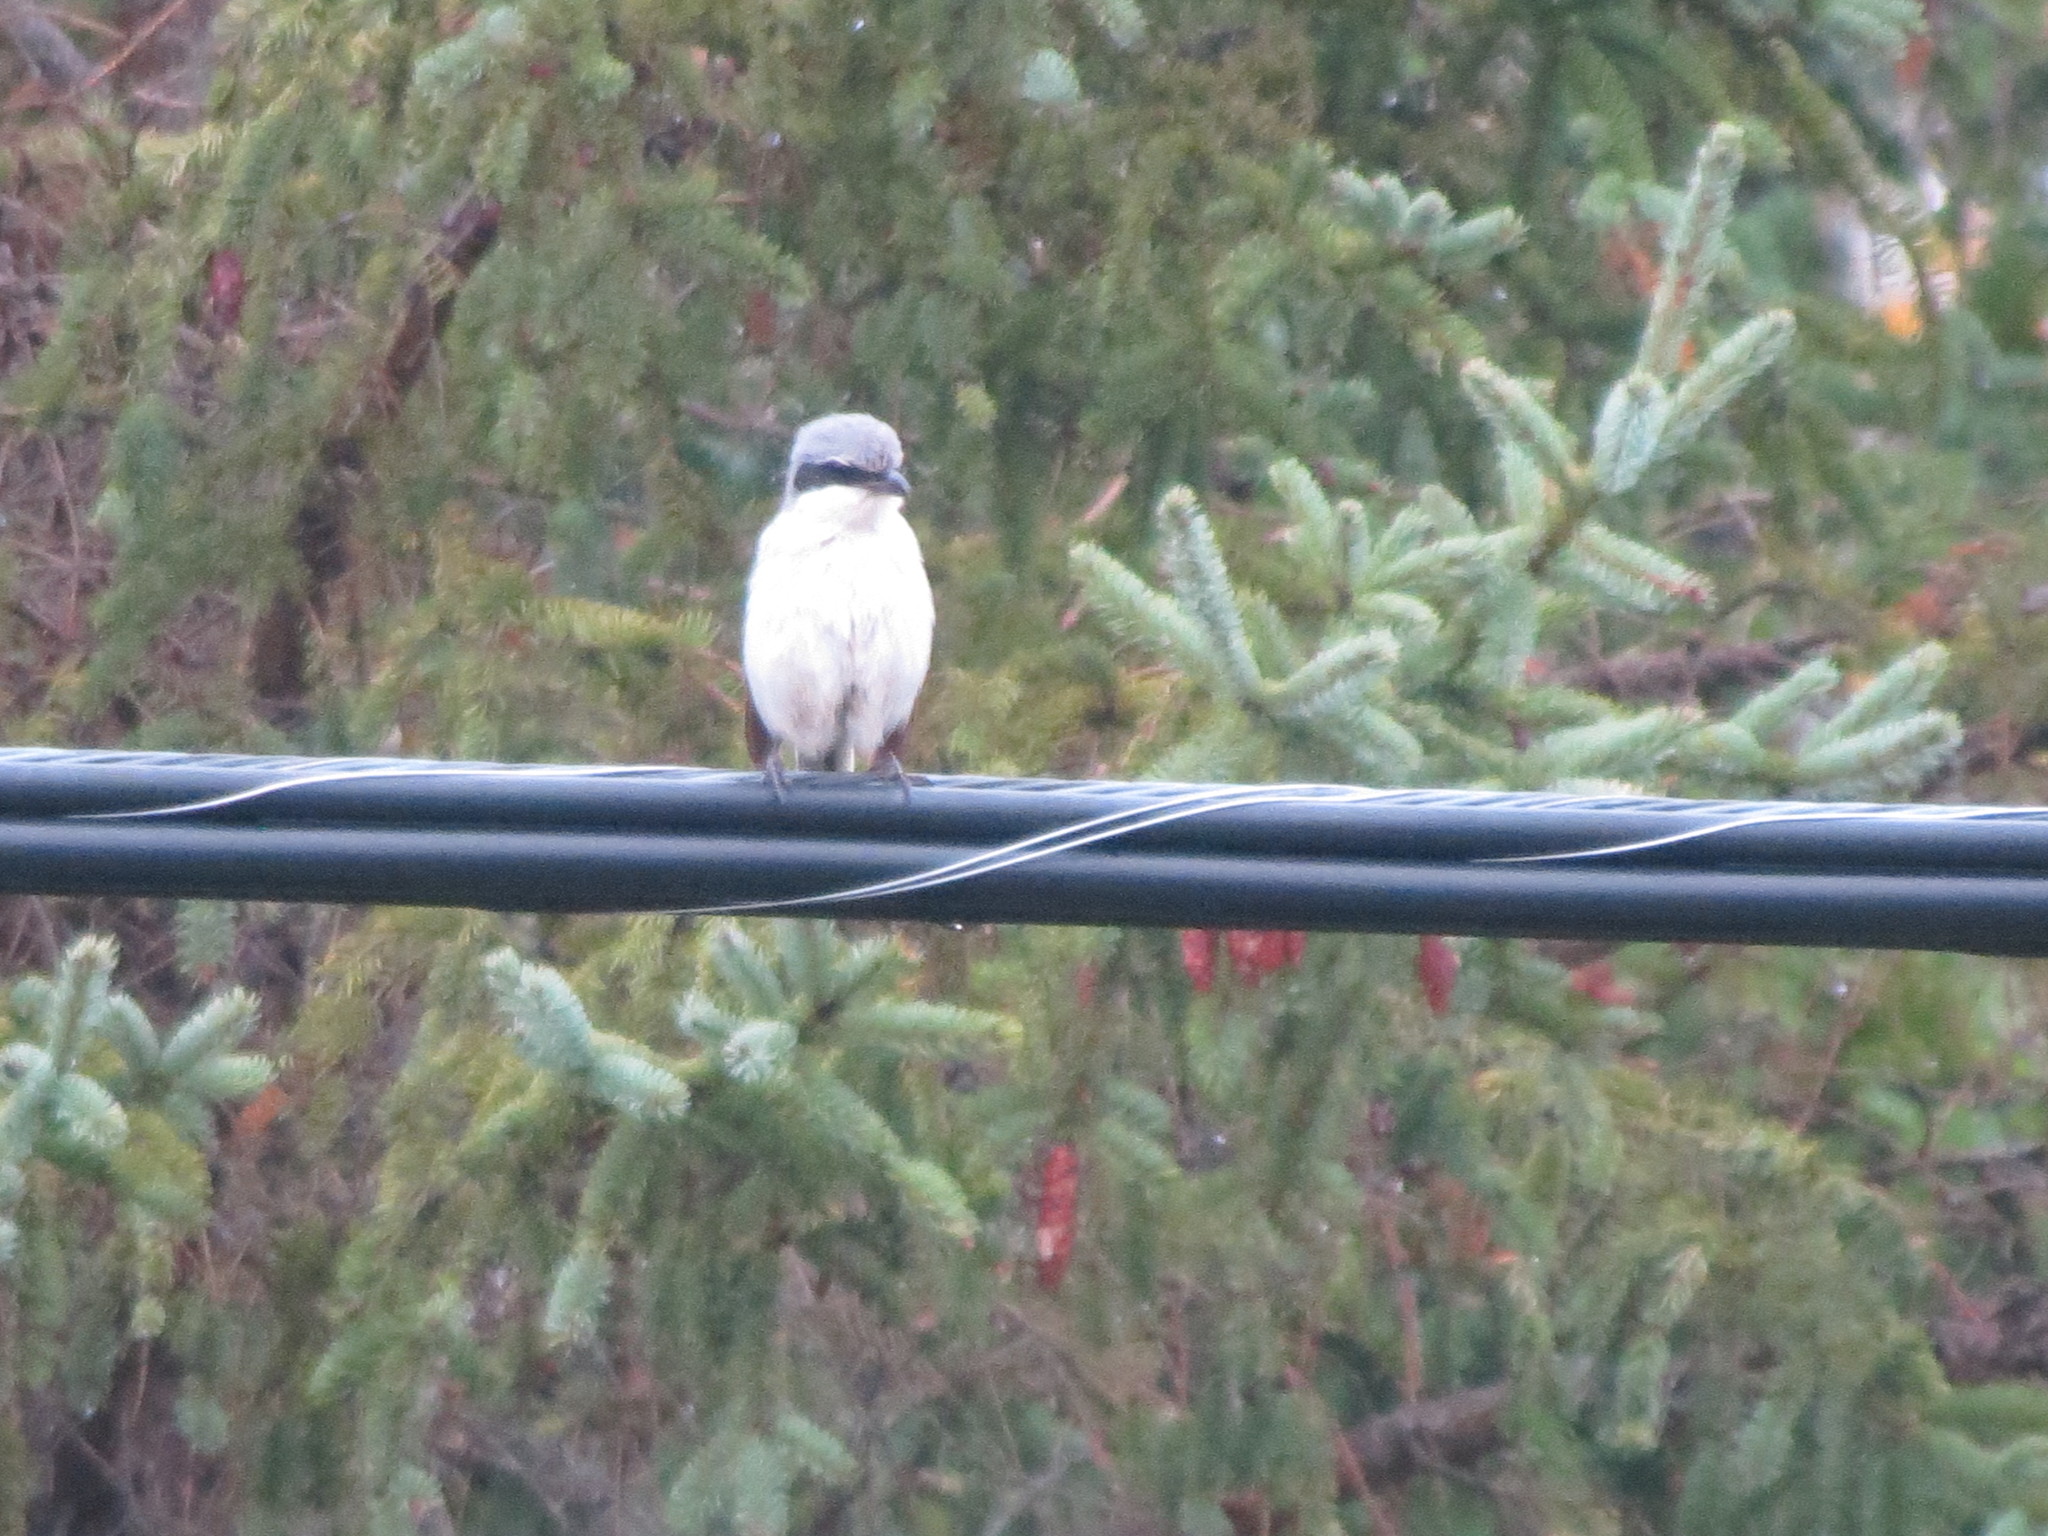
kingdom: Animalia
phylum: Chordata
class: Aves
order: Passeriformes
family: Laniidae
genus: Lanius
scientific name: Lanius ludovicianus
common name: Loggerhead shrike
